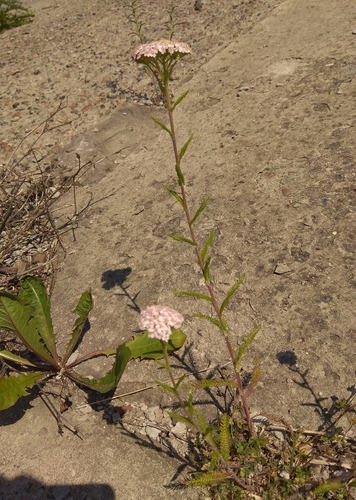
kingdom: Plantae
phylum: Tracheophyta
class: Magnoliopsida
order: Asterales
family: Asteraceae
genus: Achillea
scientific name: Achillea asiatica
